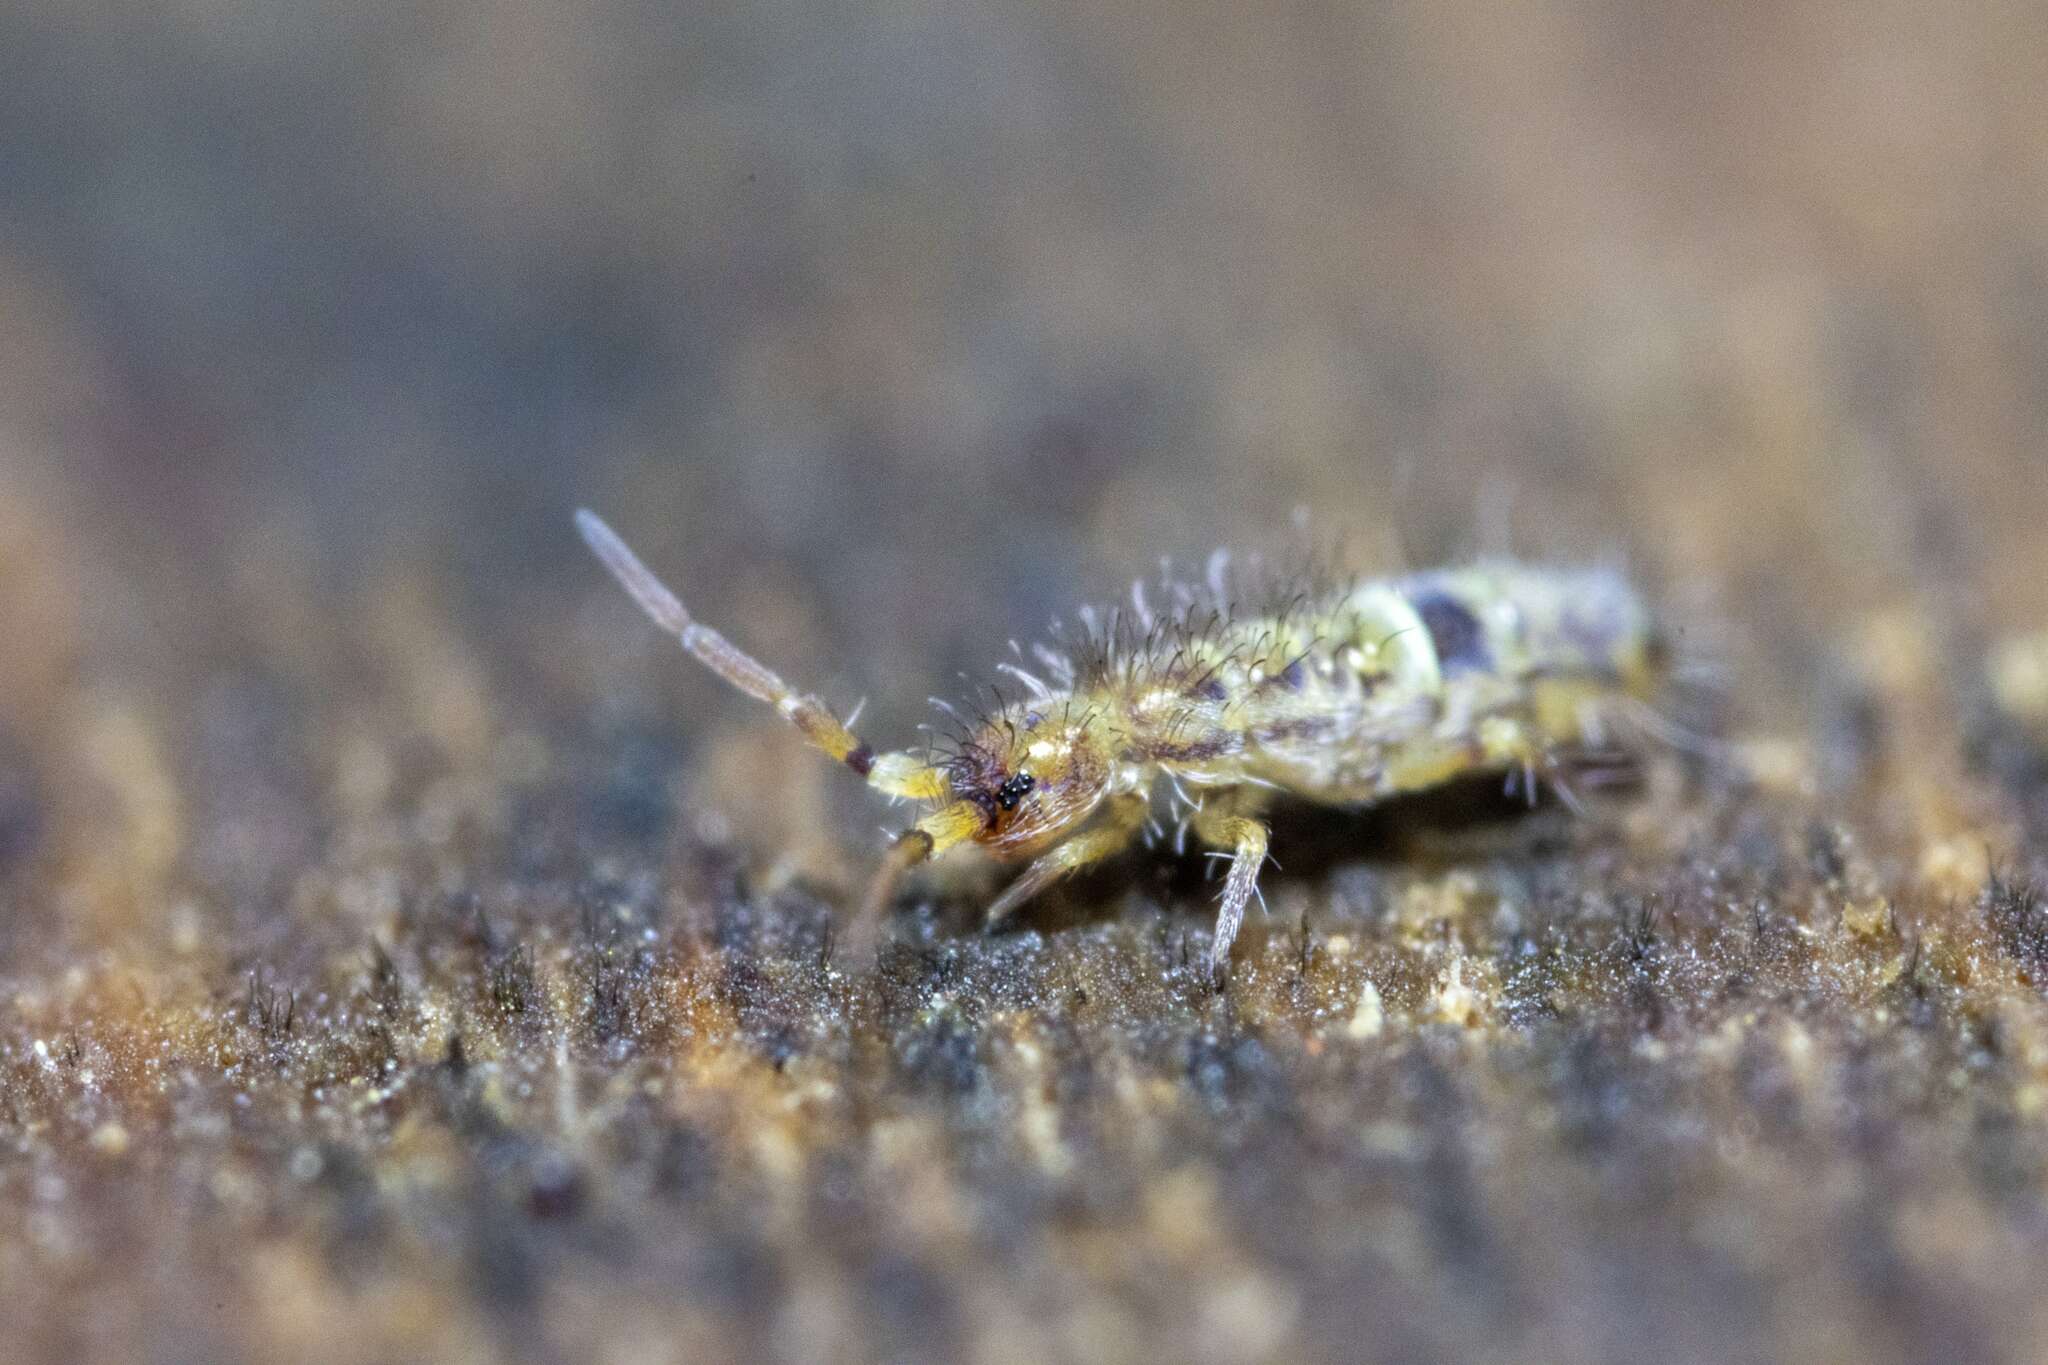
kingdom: Animalia
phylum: Arthropoda
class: Collembola
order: Entomobryomorpha
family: Orchesellidae
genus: Orchesella
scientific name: Orchesella cincta
